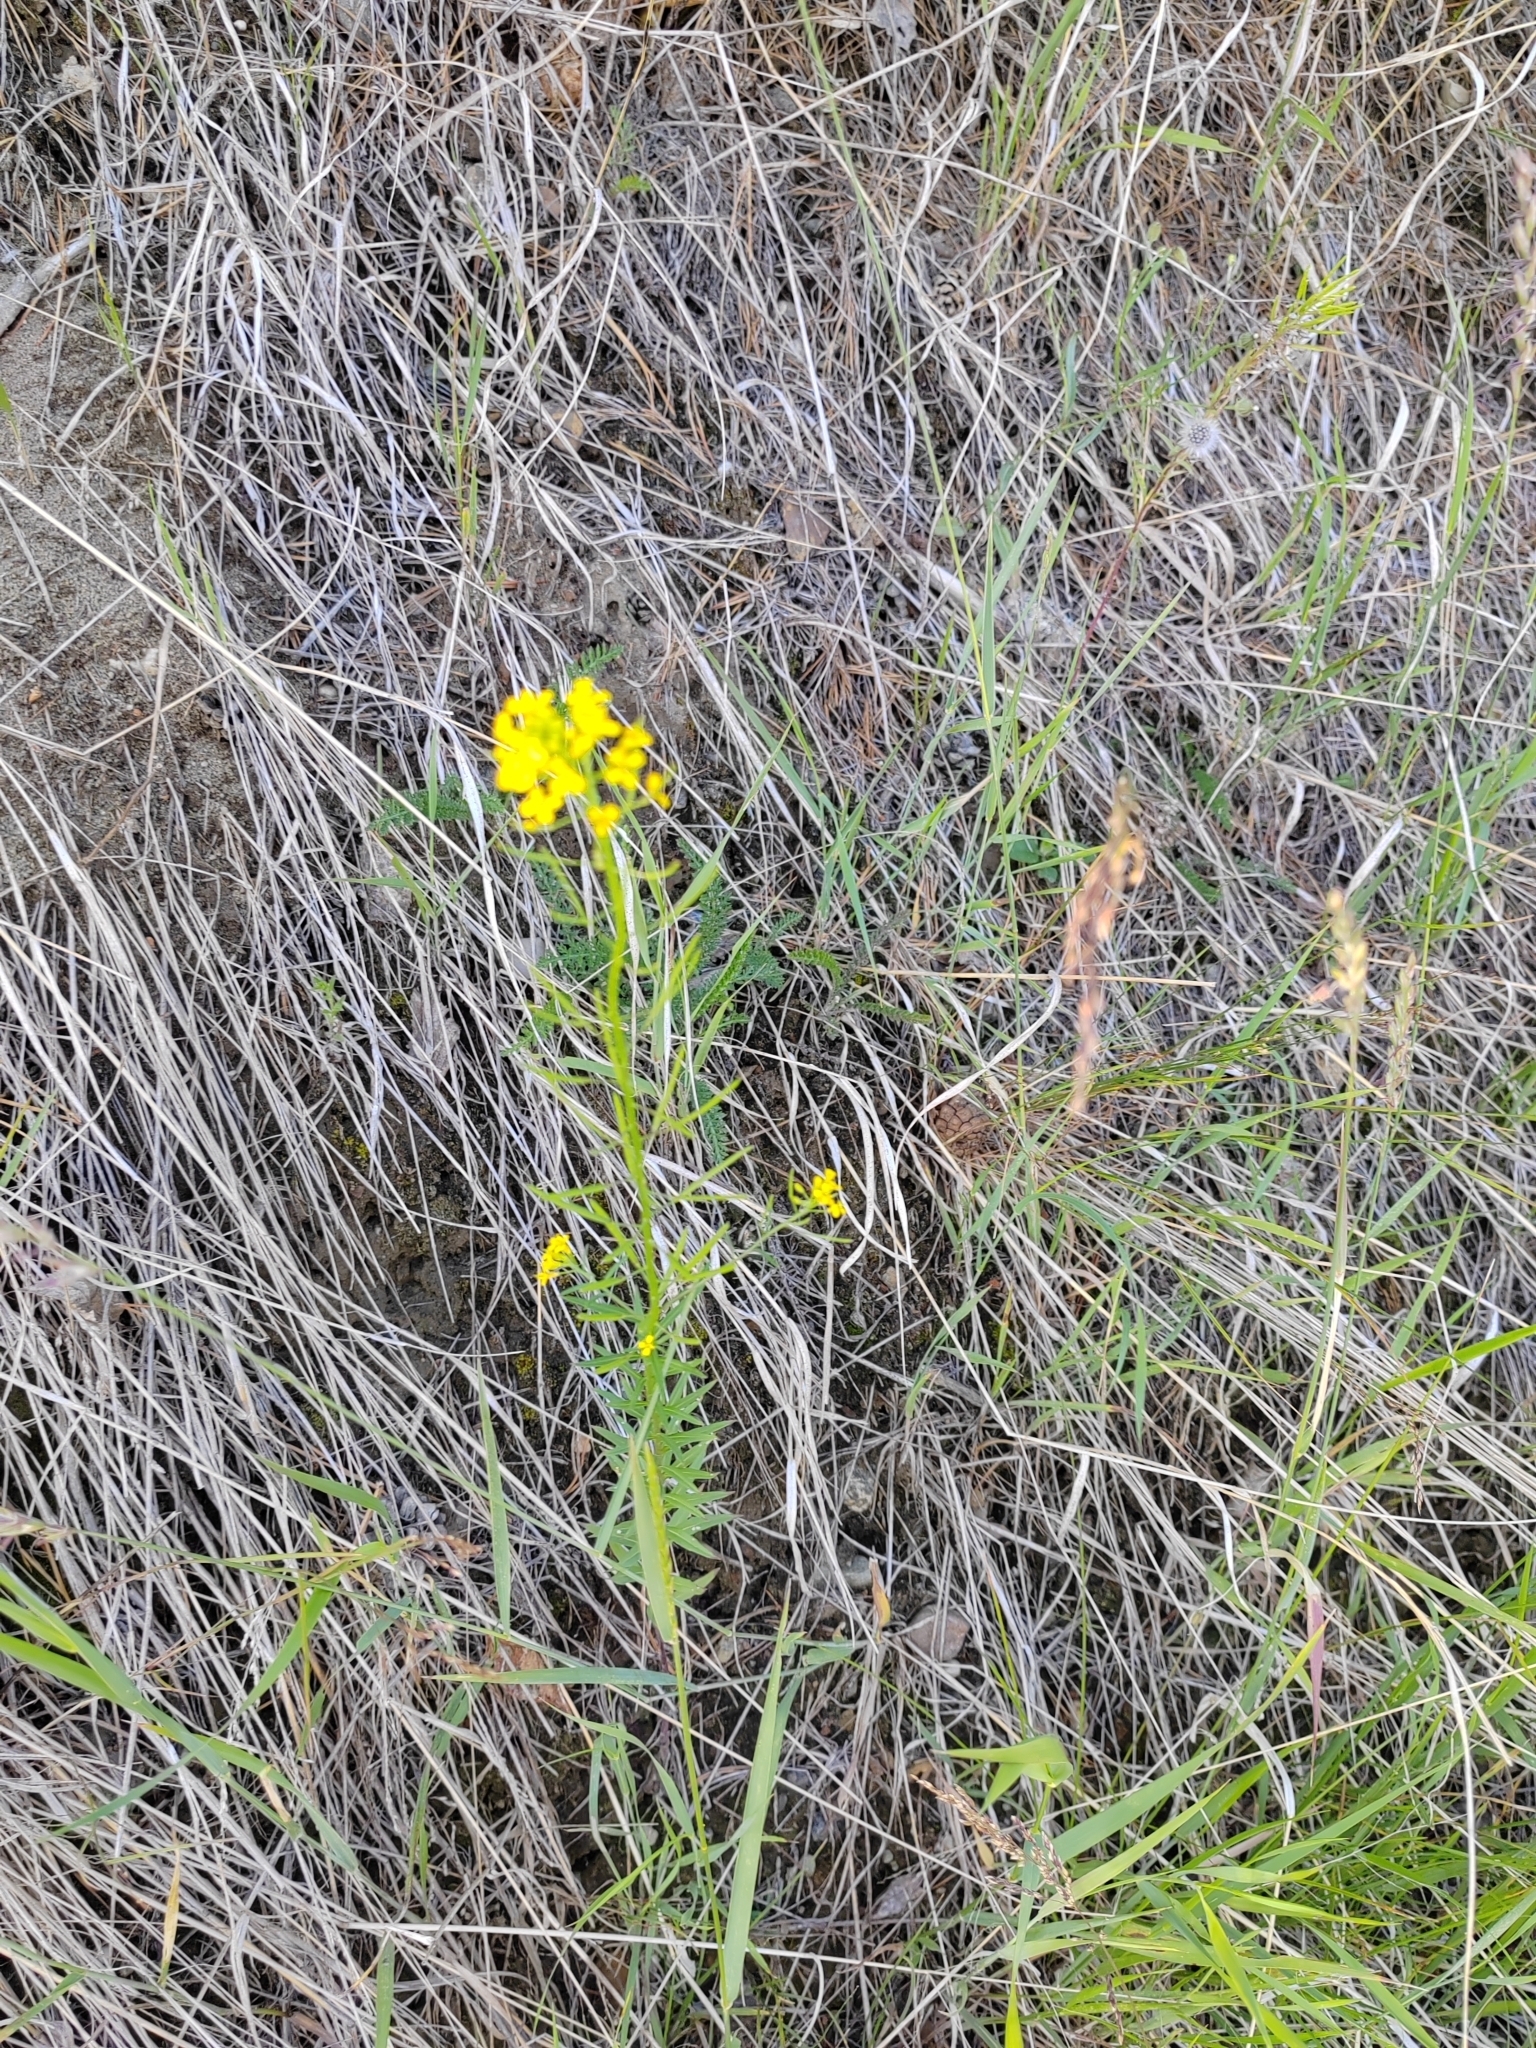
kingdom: Plantae
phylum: Tracheophyta
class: Magnoliopsida
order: Brassicales
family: Brassicaceae
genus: Erysimum
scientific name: Erysimum hieraciifolium
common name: European wallflower
